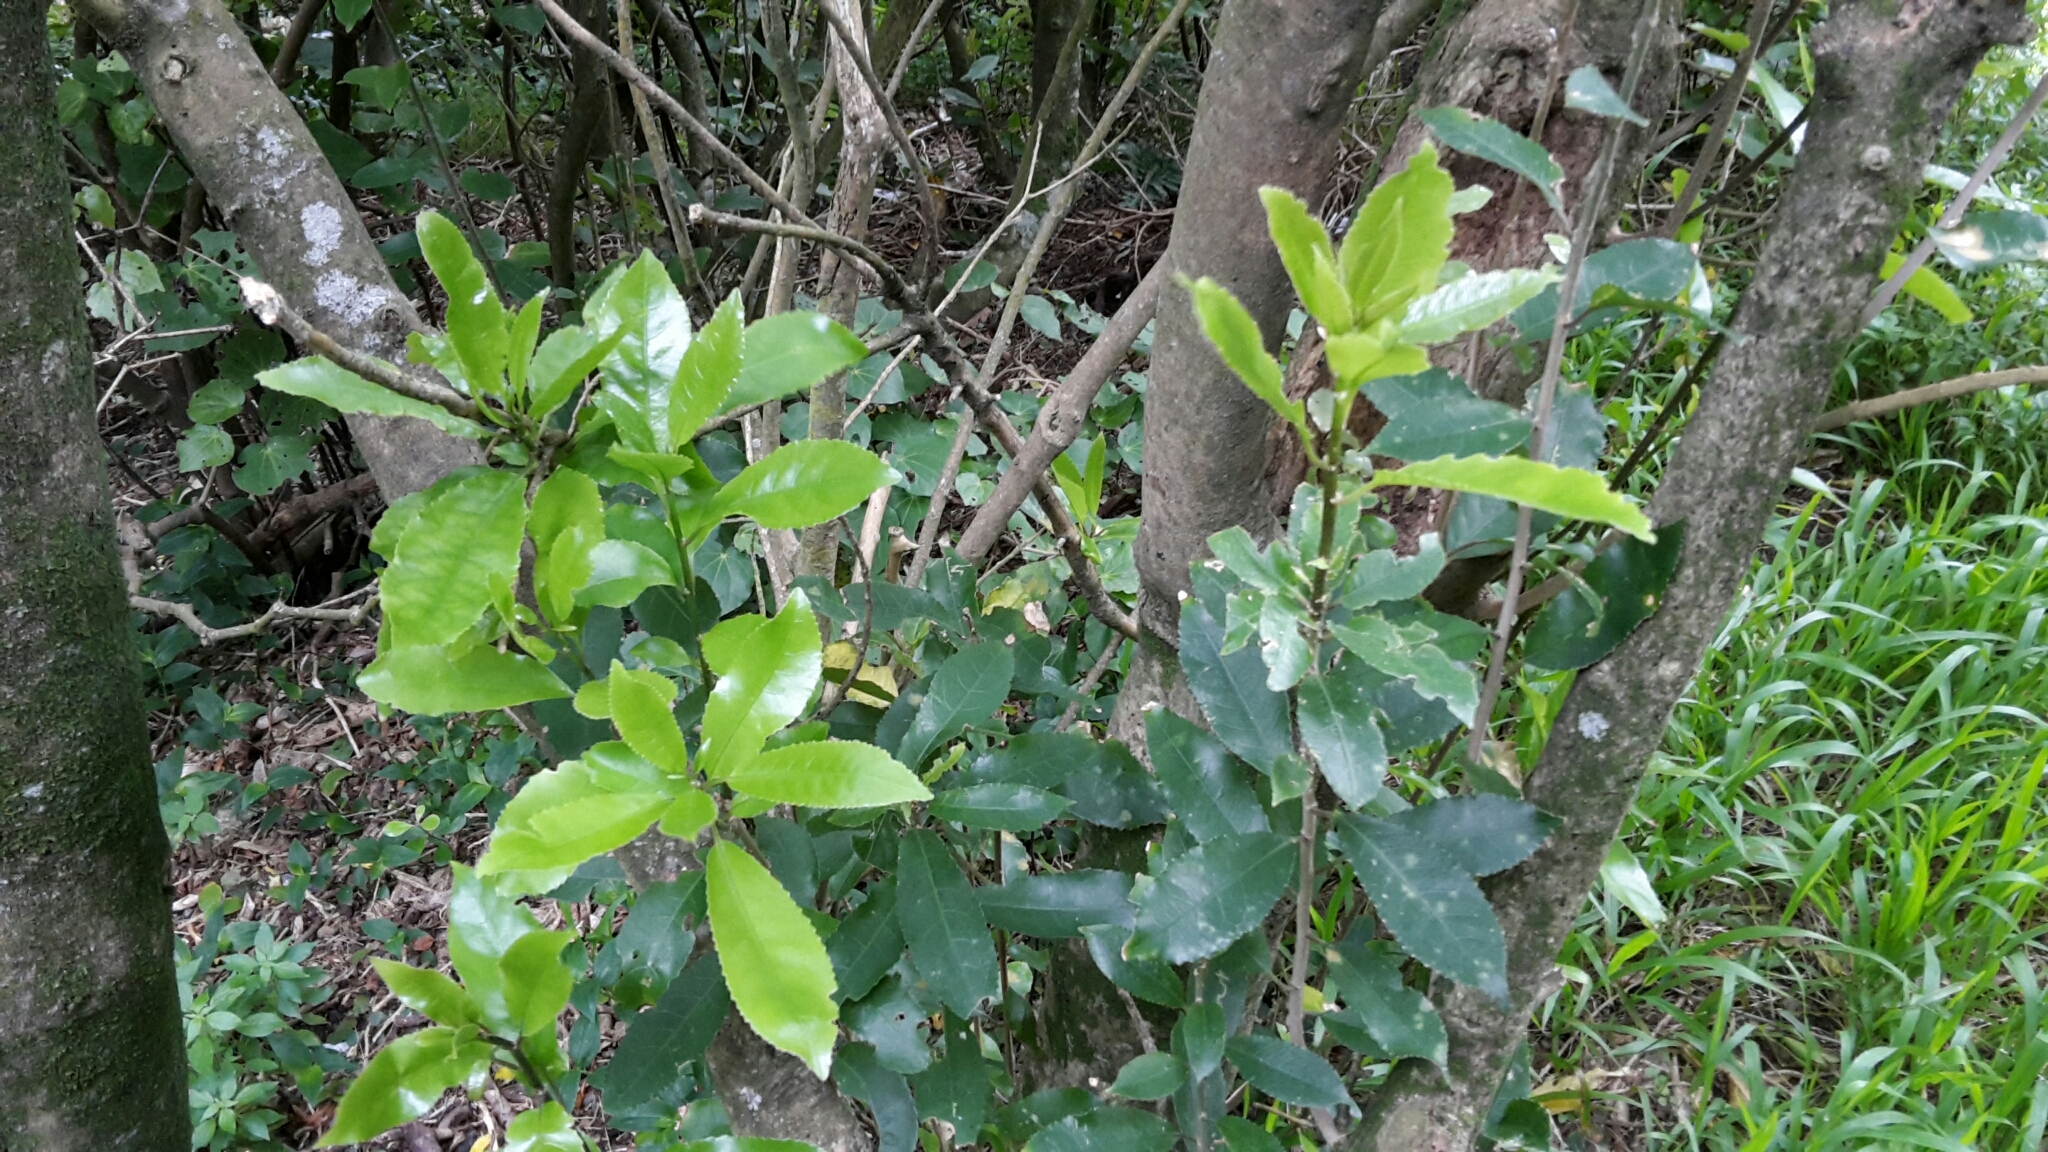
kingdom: Plantae
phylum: Tracheophyta
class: Magnoliopsida
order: Malpighiales
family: Violaceae
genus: Melicytus
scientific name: Melicytus ramiflorus
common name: Mahoe
